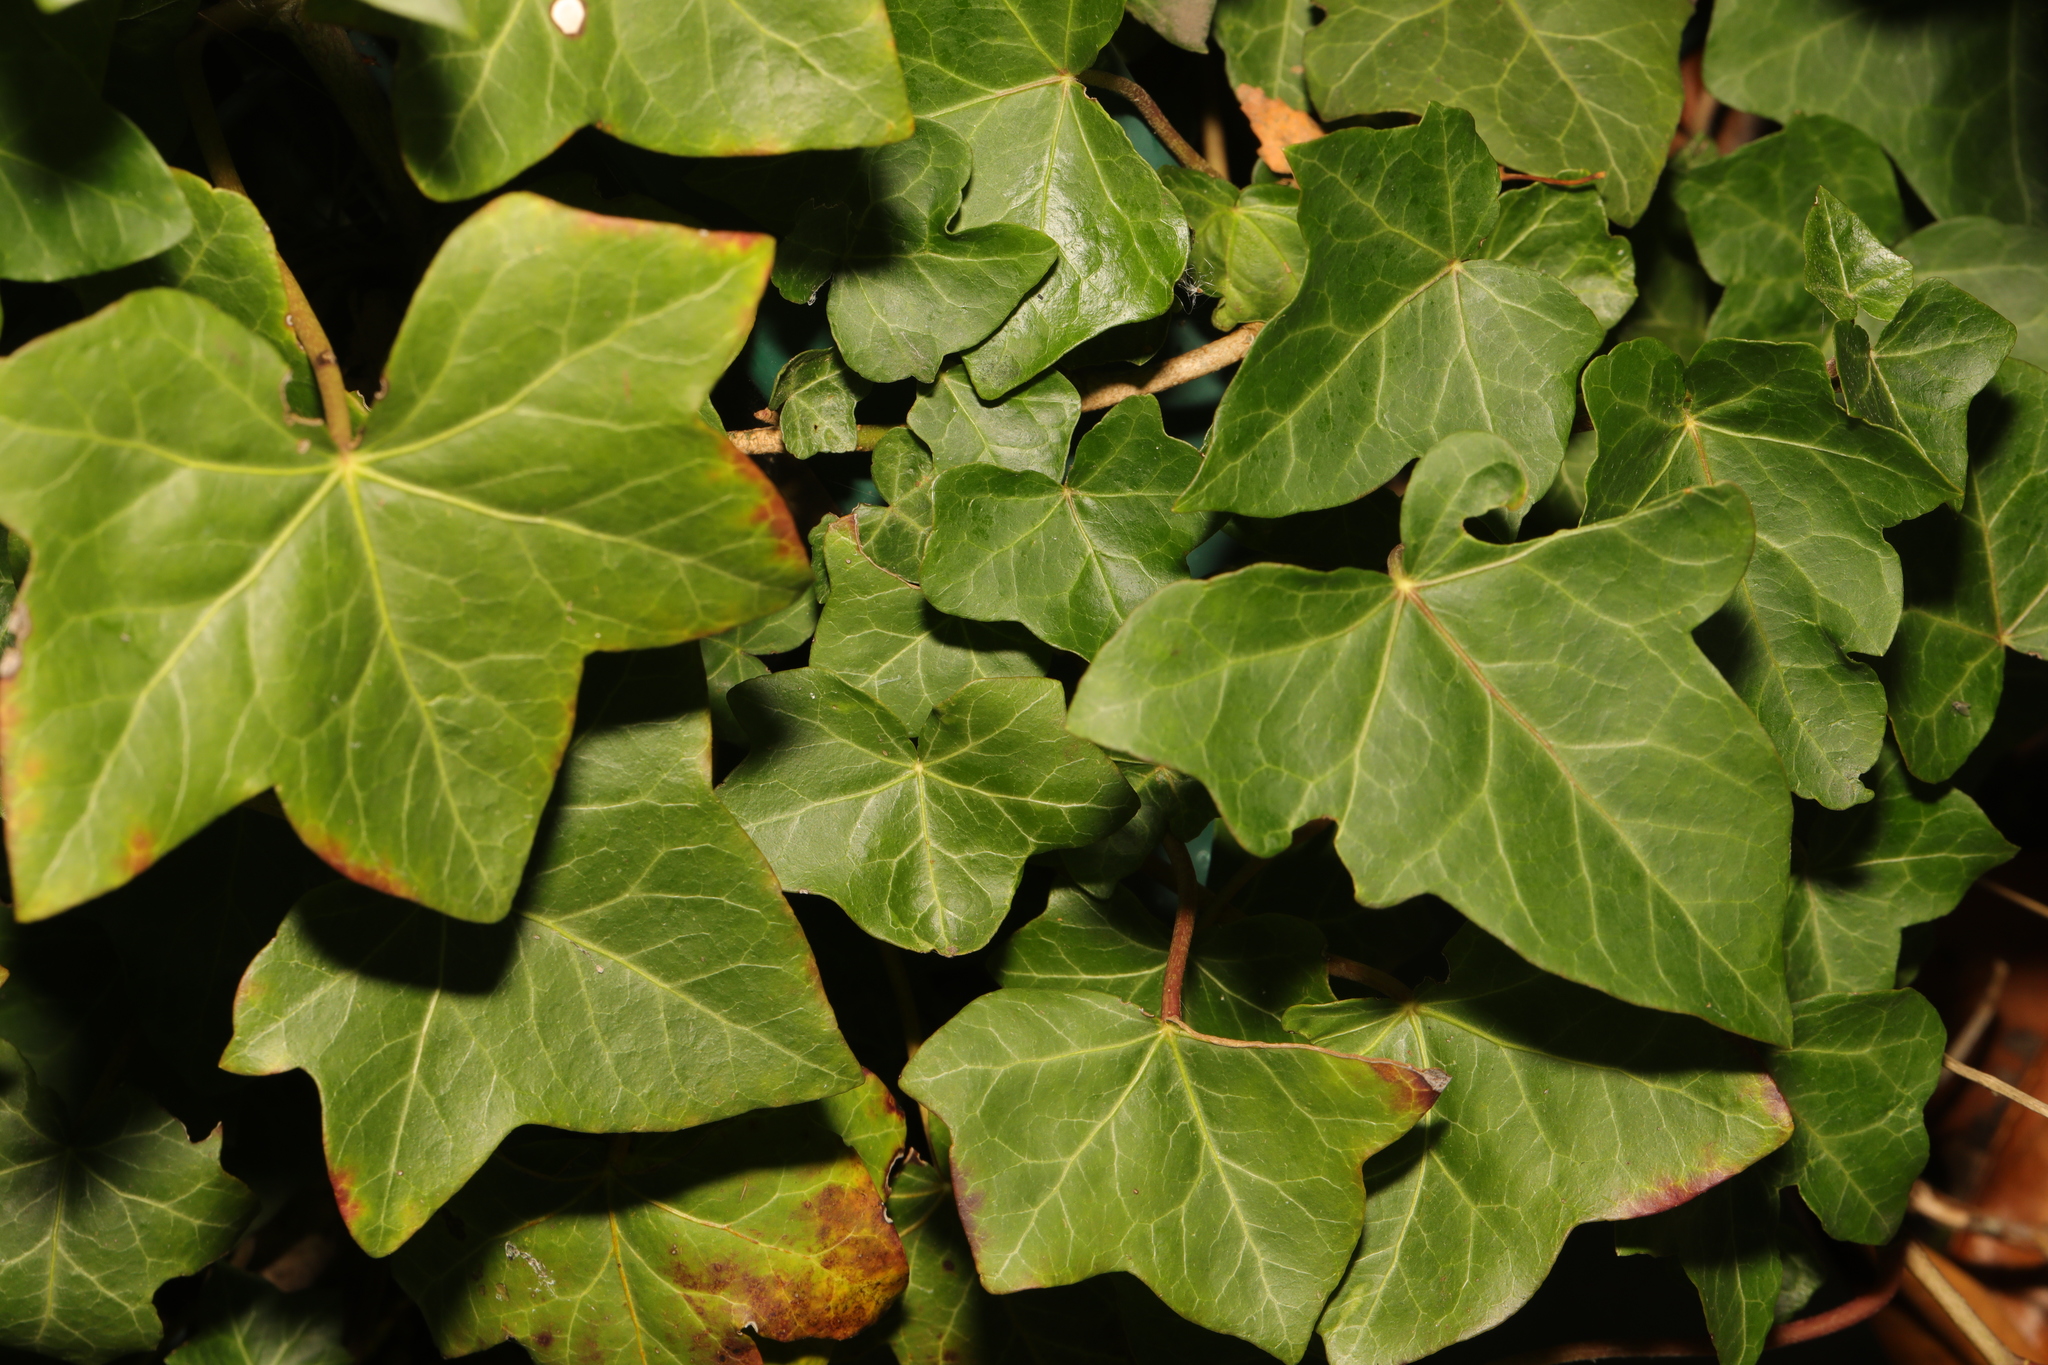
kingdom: Plantae
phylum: Tracheophyta
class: Magnoliopsida
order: Apiales
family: Araliaceae
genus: Hedera
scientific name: Hedera helix
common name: Ivy
